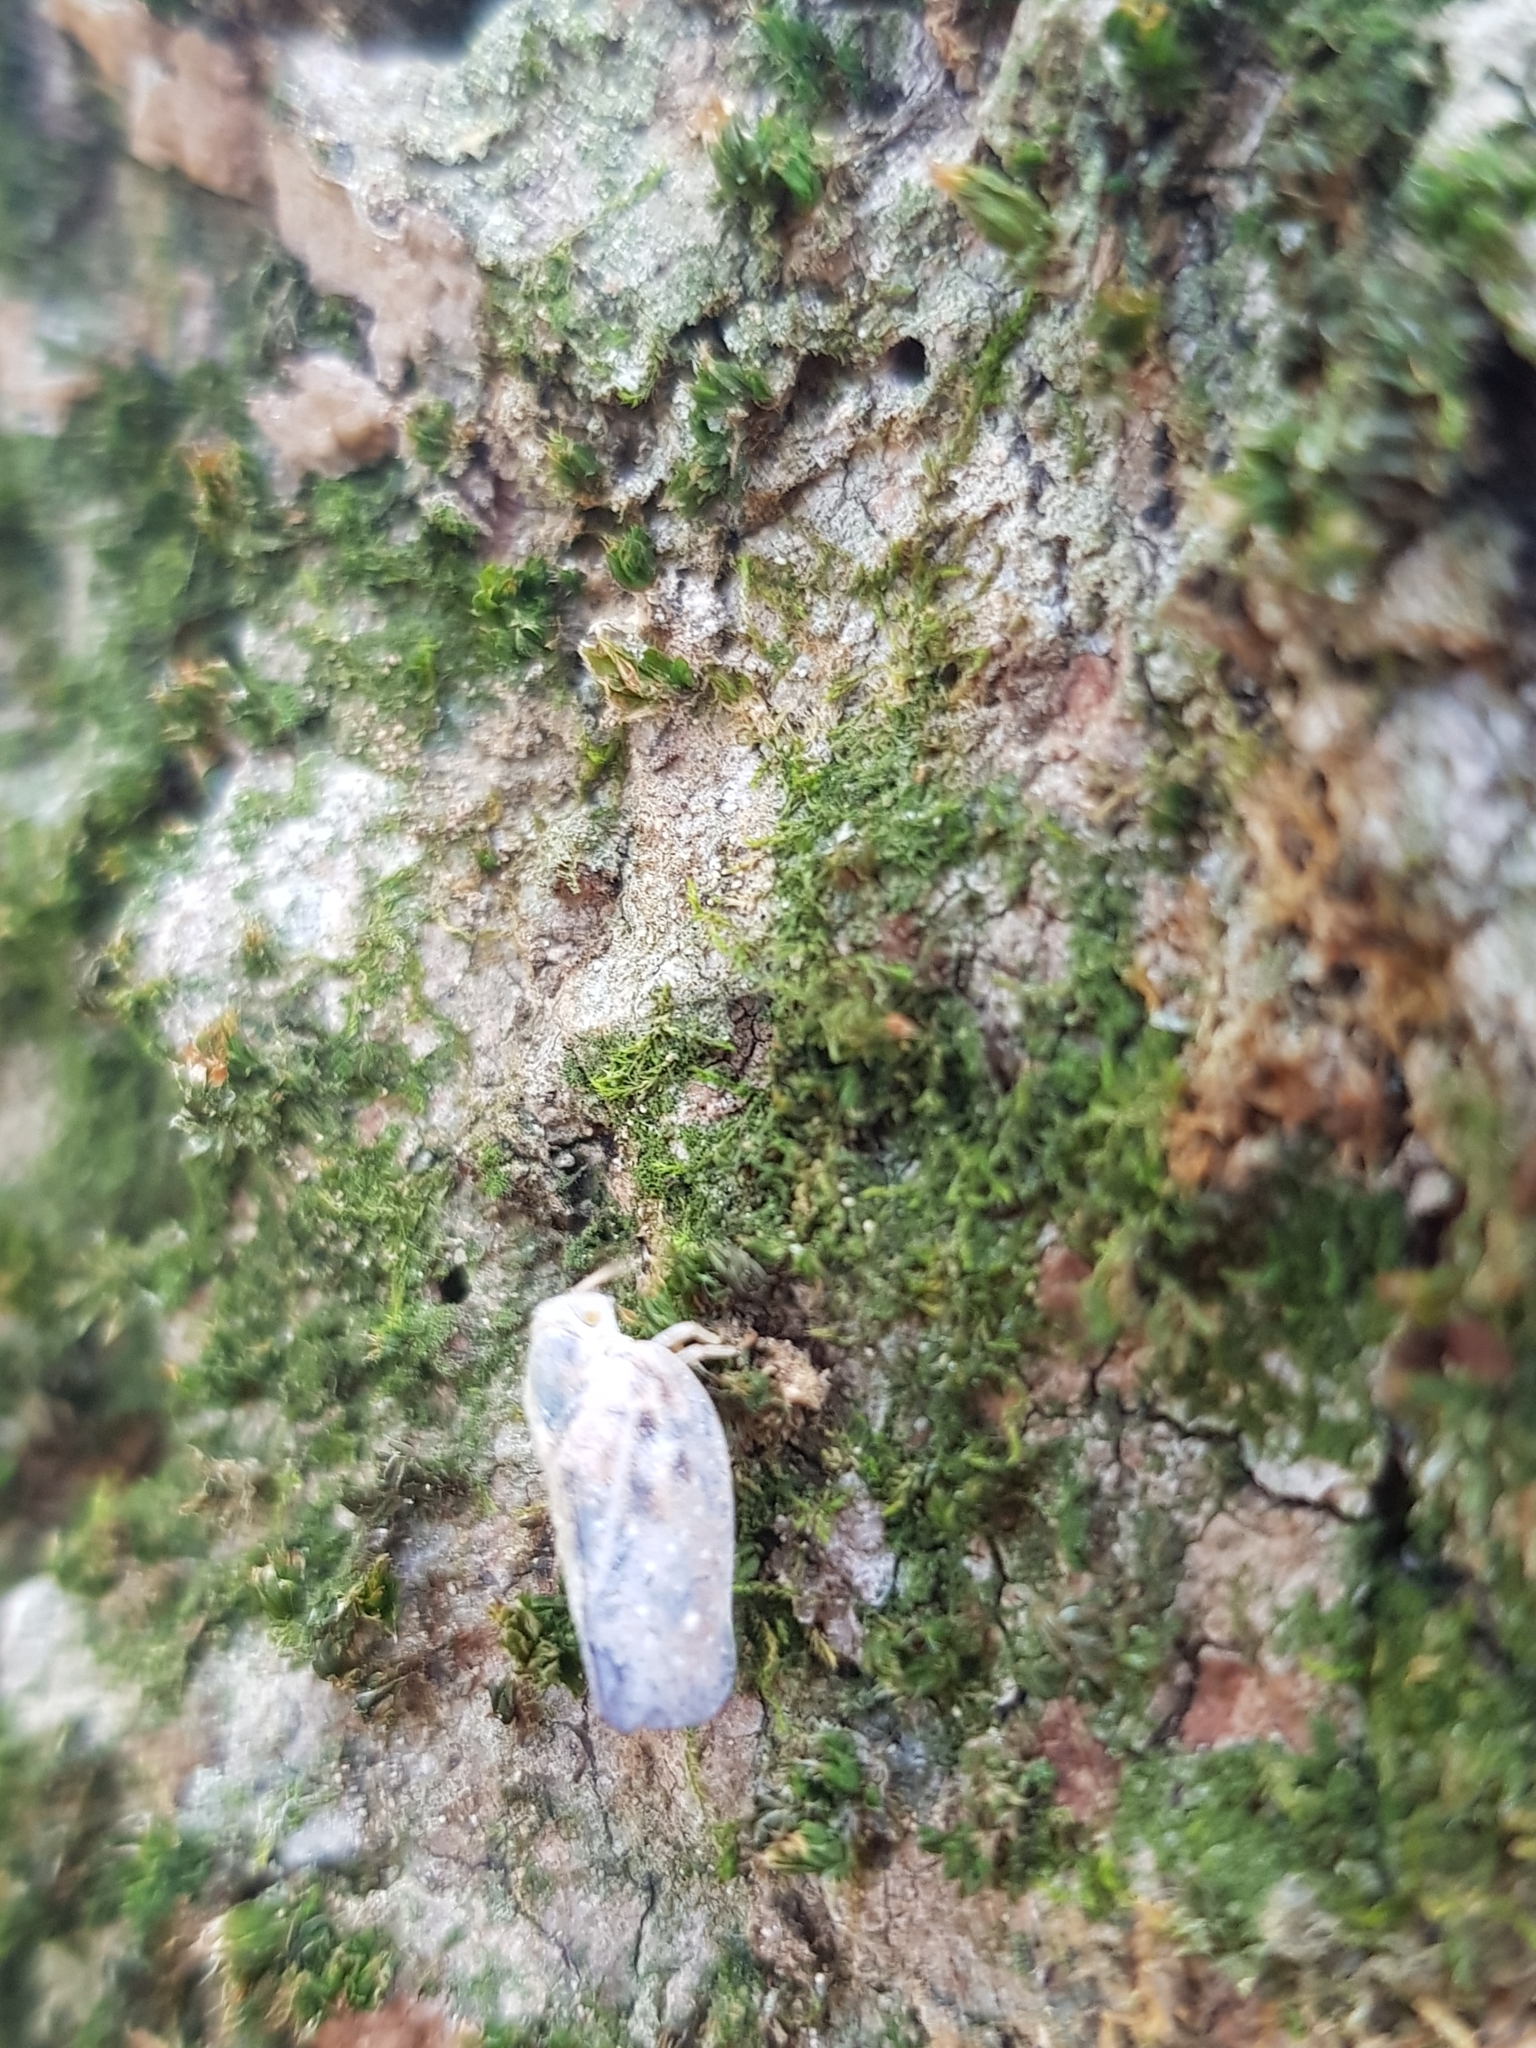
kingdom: Animalia
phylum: Arthropoda
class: Insecta
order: Hemiptera
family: Flatidae
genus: Metcalfa
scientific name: Metcalfa pruinosa
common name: Citrus flatid planthopper
